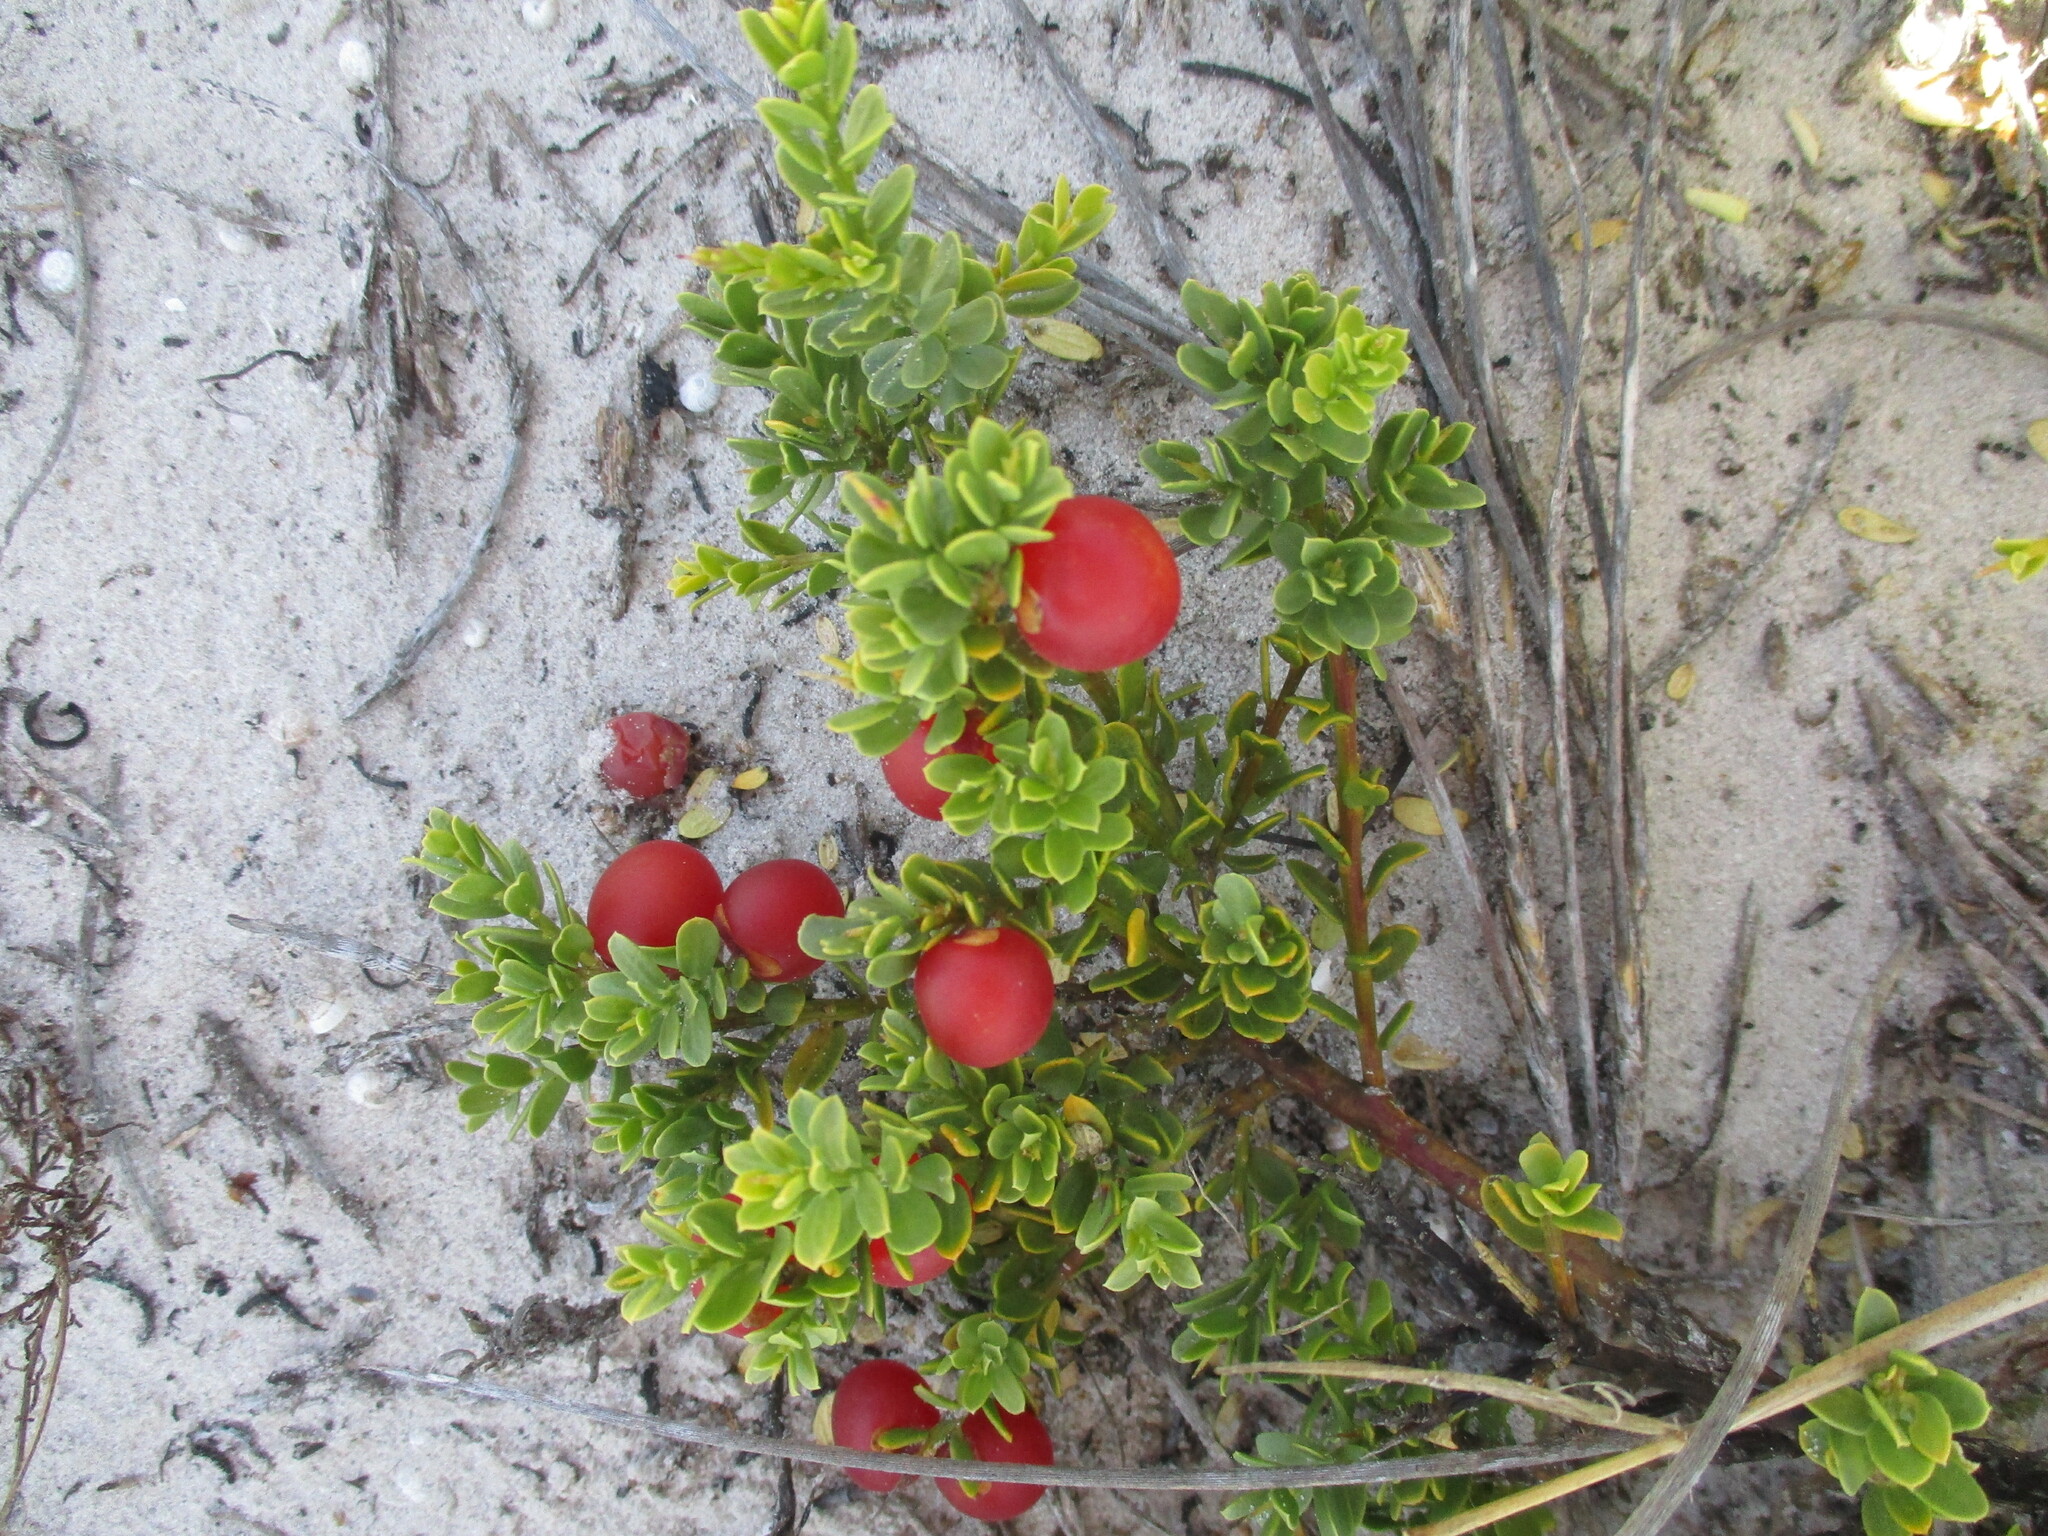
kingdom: Plantae
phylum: Tracheophyta
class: Magnoliopsida
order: Fabales
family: Polygalaceae
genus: Muraltia
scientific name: Muraltia spinosa
